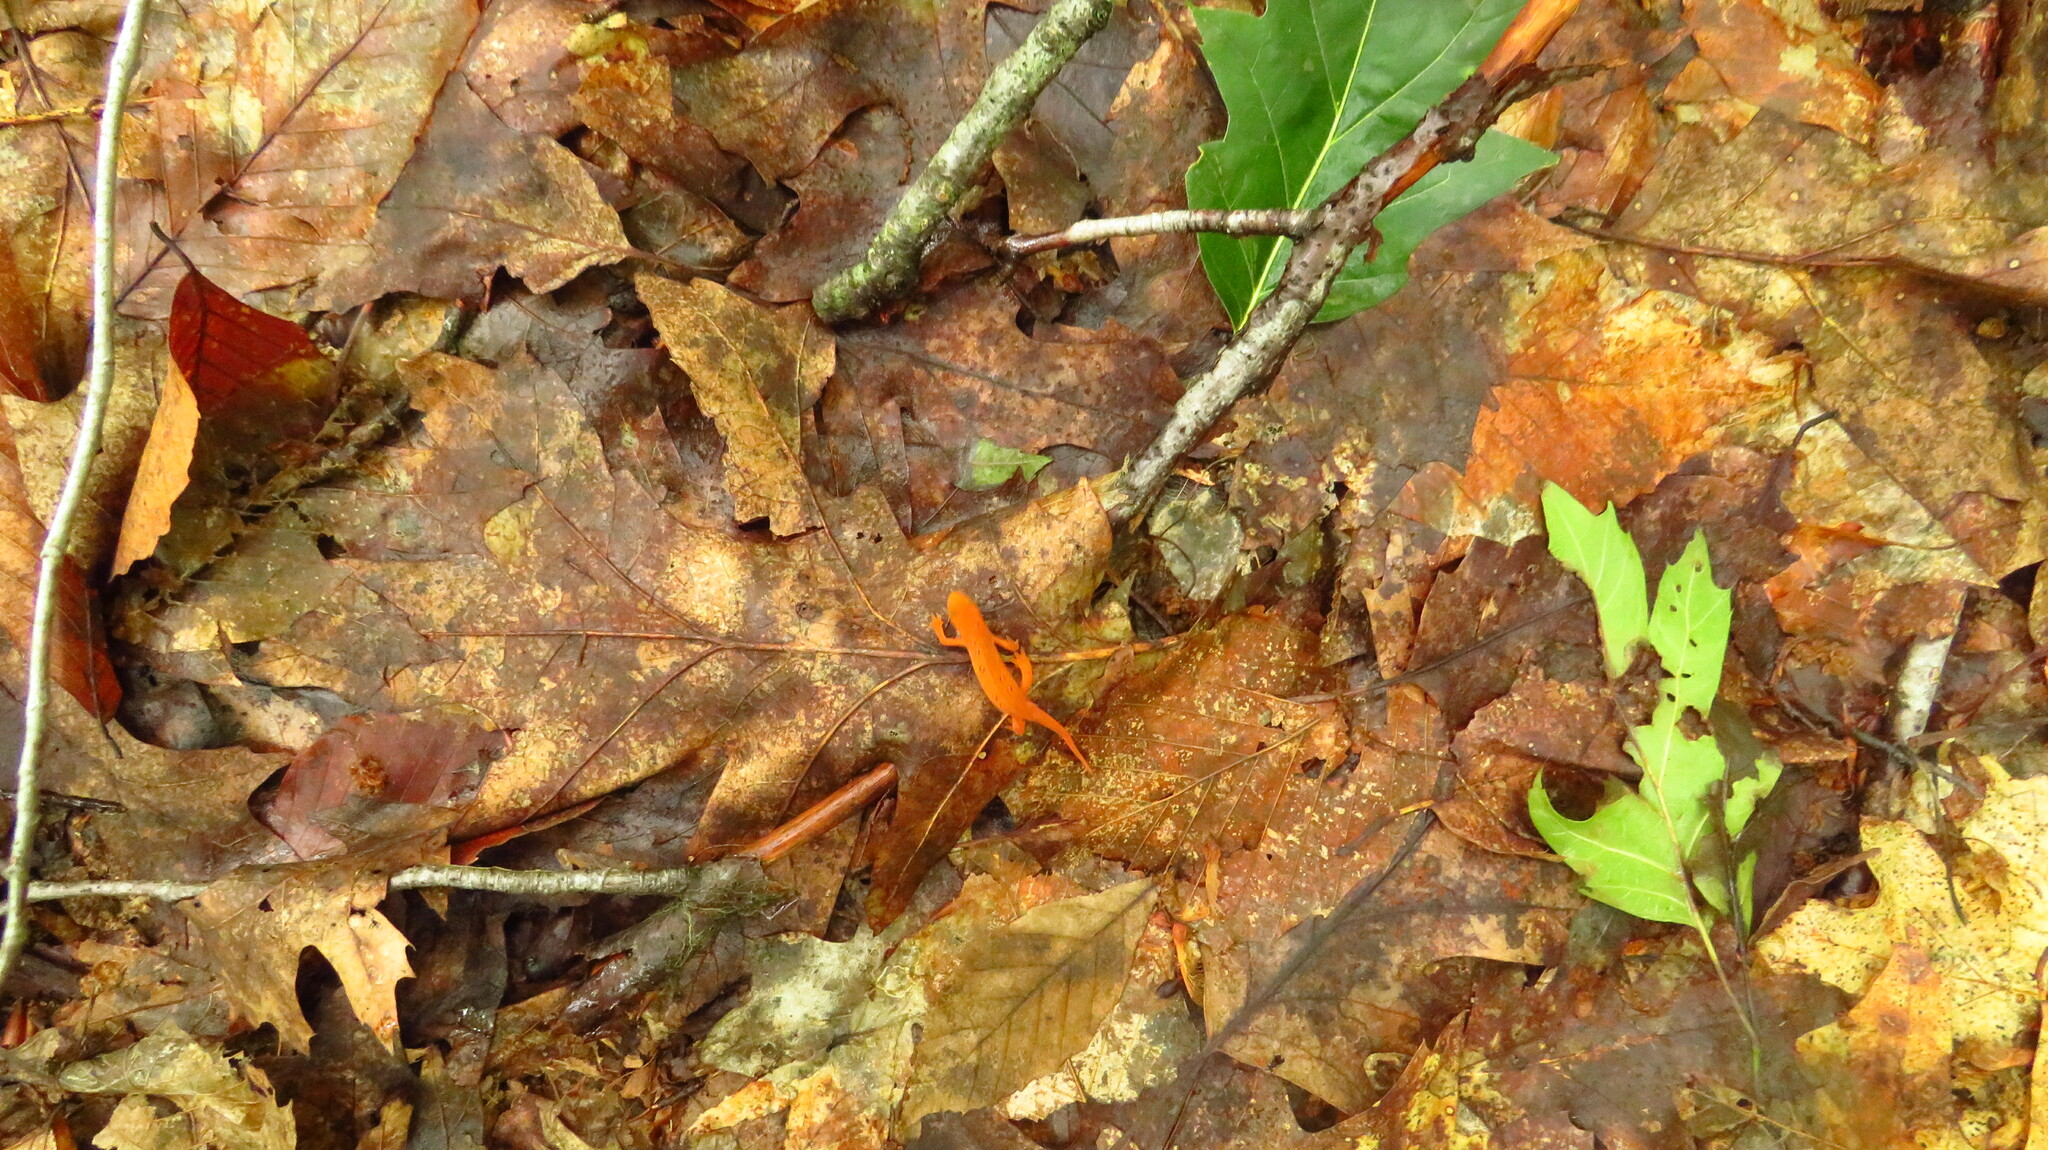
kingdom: Animalia
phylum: Chordata
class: Amphibia
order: Caudata
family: Salamandridae
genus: Notophthalmus
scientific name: Notophthalmus viridescens
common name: Eastern newt
